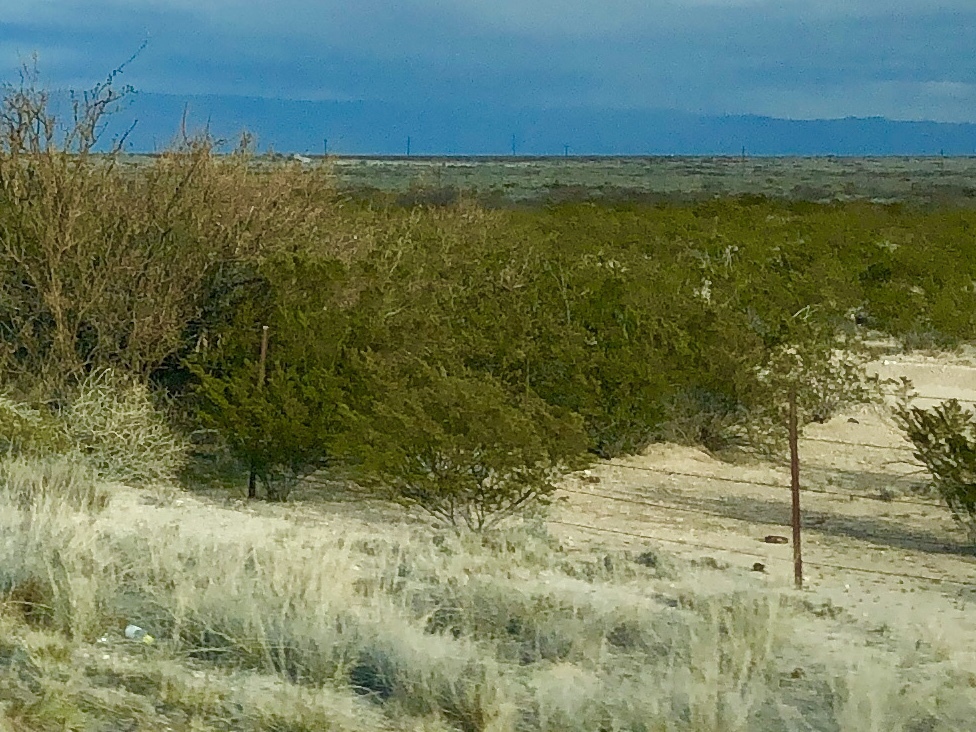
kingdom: Plantae
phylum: Tracheophyta
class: Magnoliopsida
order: Zygophyllales
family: Zygophyllaceae
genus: Larrea
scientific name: Larrea tridentata
